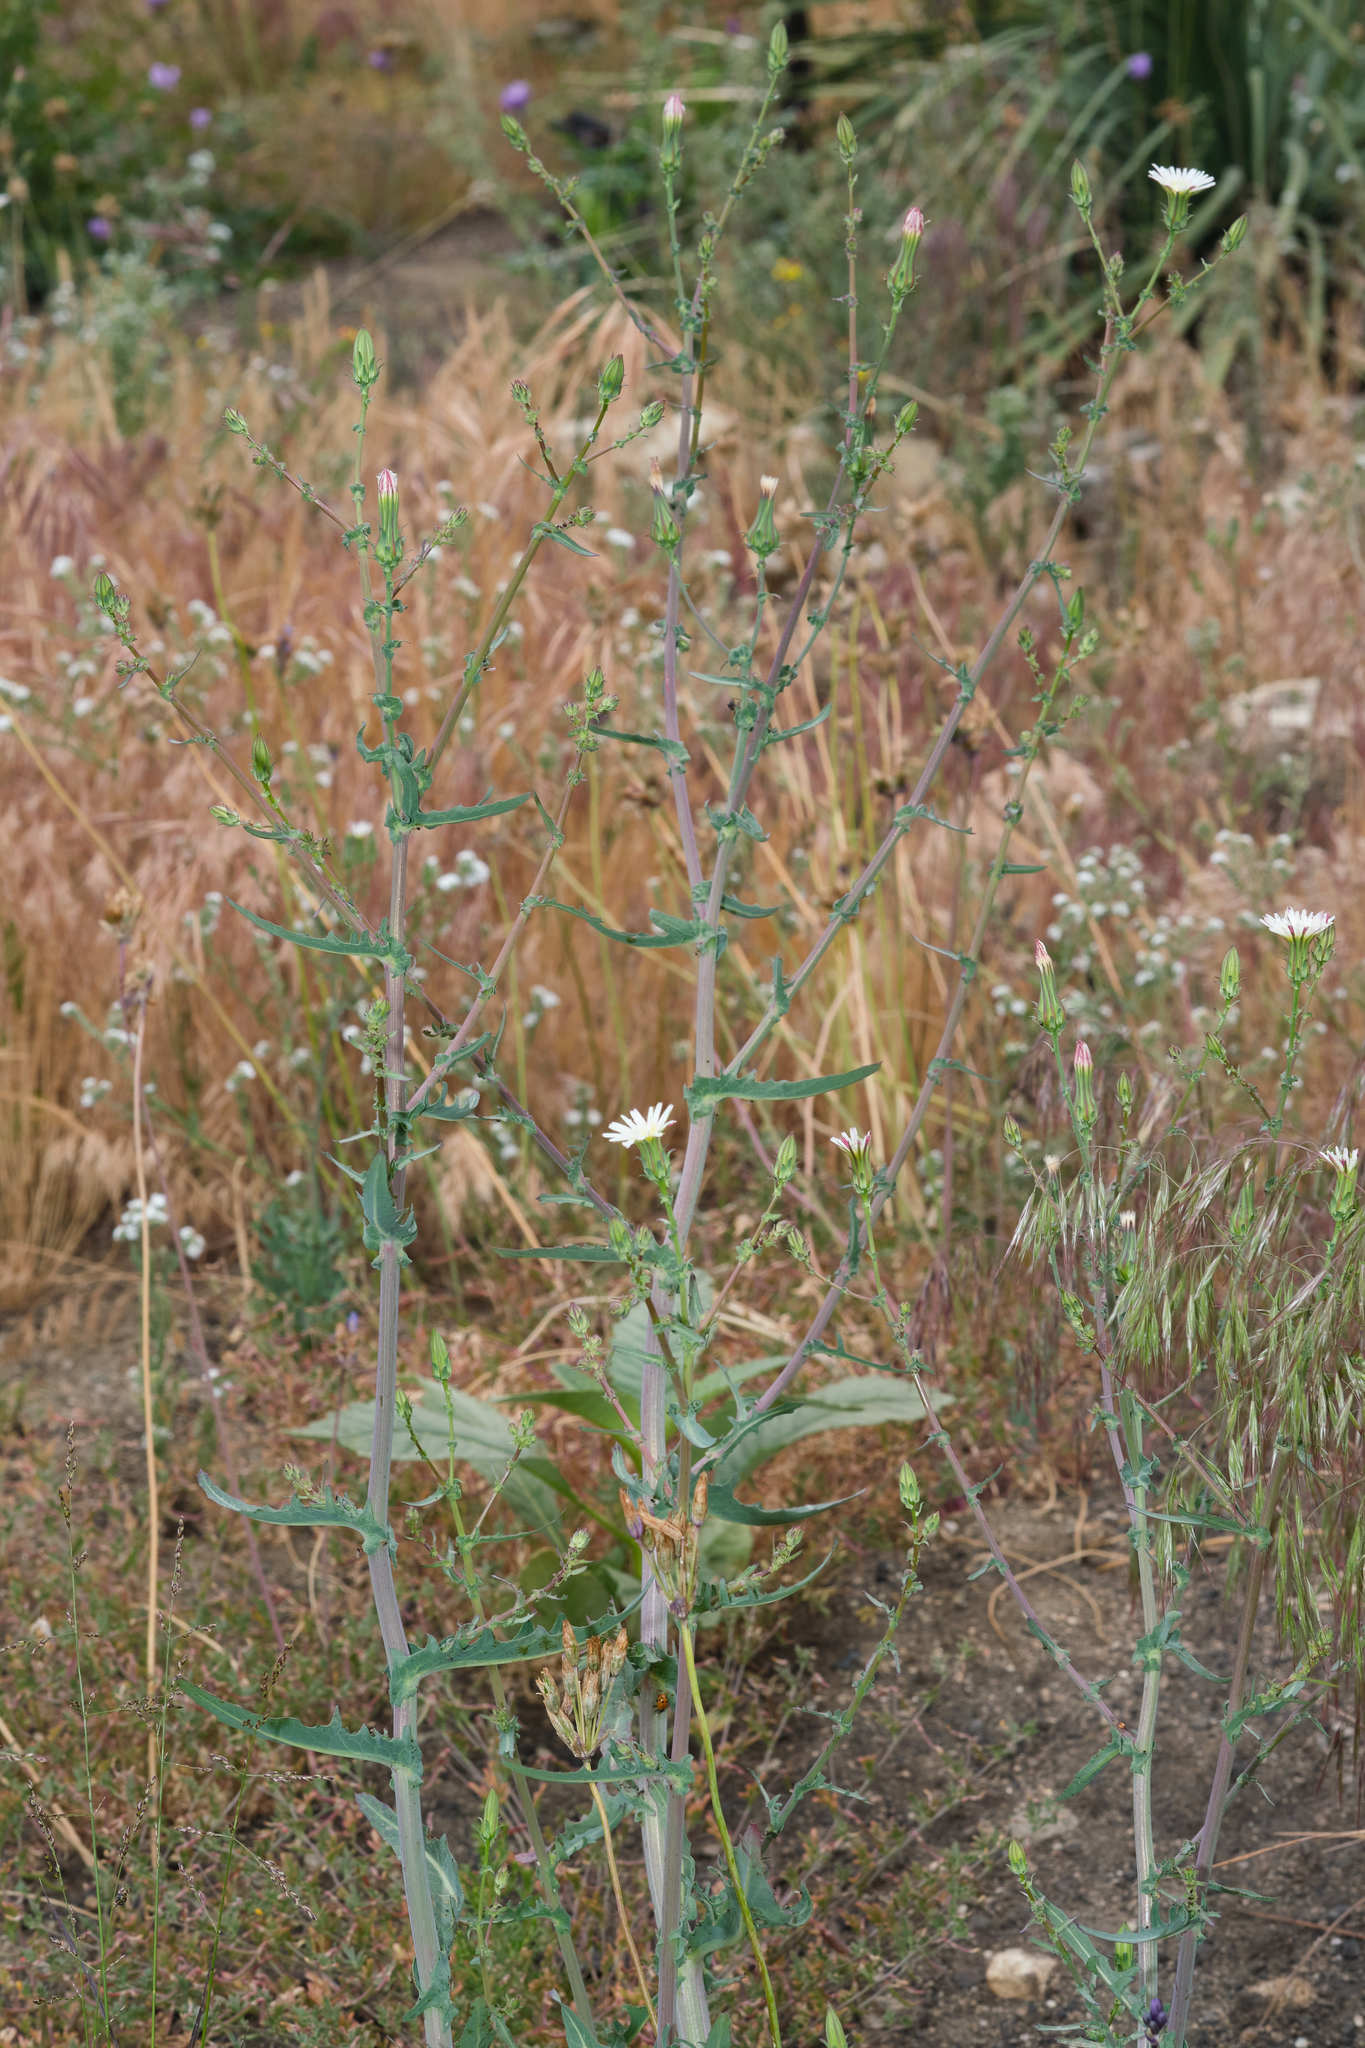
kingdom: Plantae
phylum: Tracheophyta
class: Magnoliopsida
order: Asterales
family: Asteraceae
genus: Rafinesquia
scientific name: Rafinesquia californica
